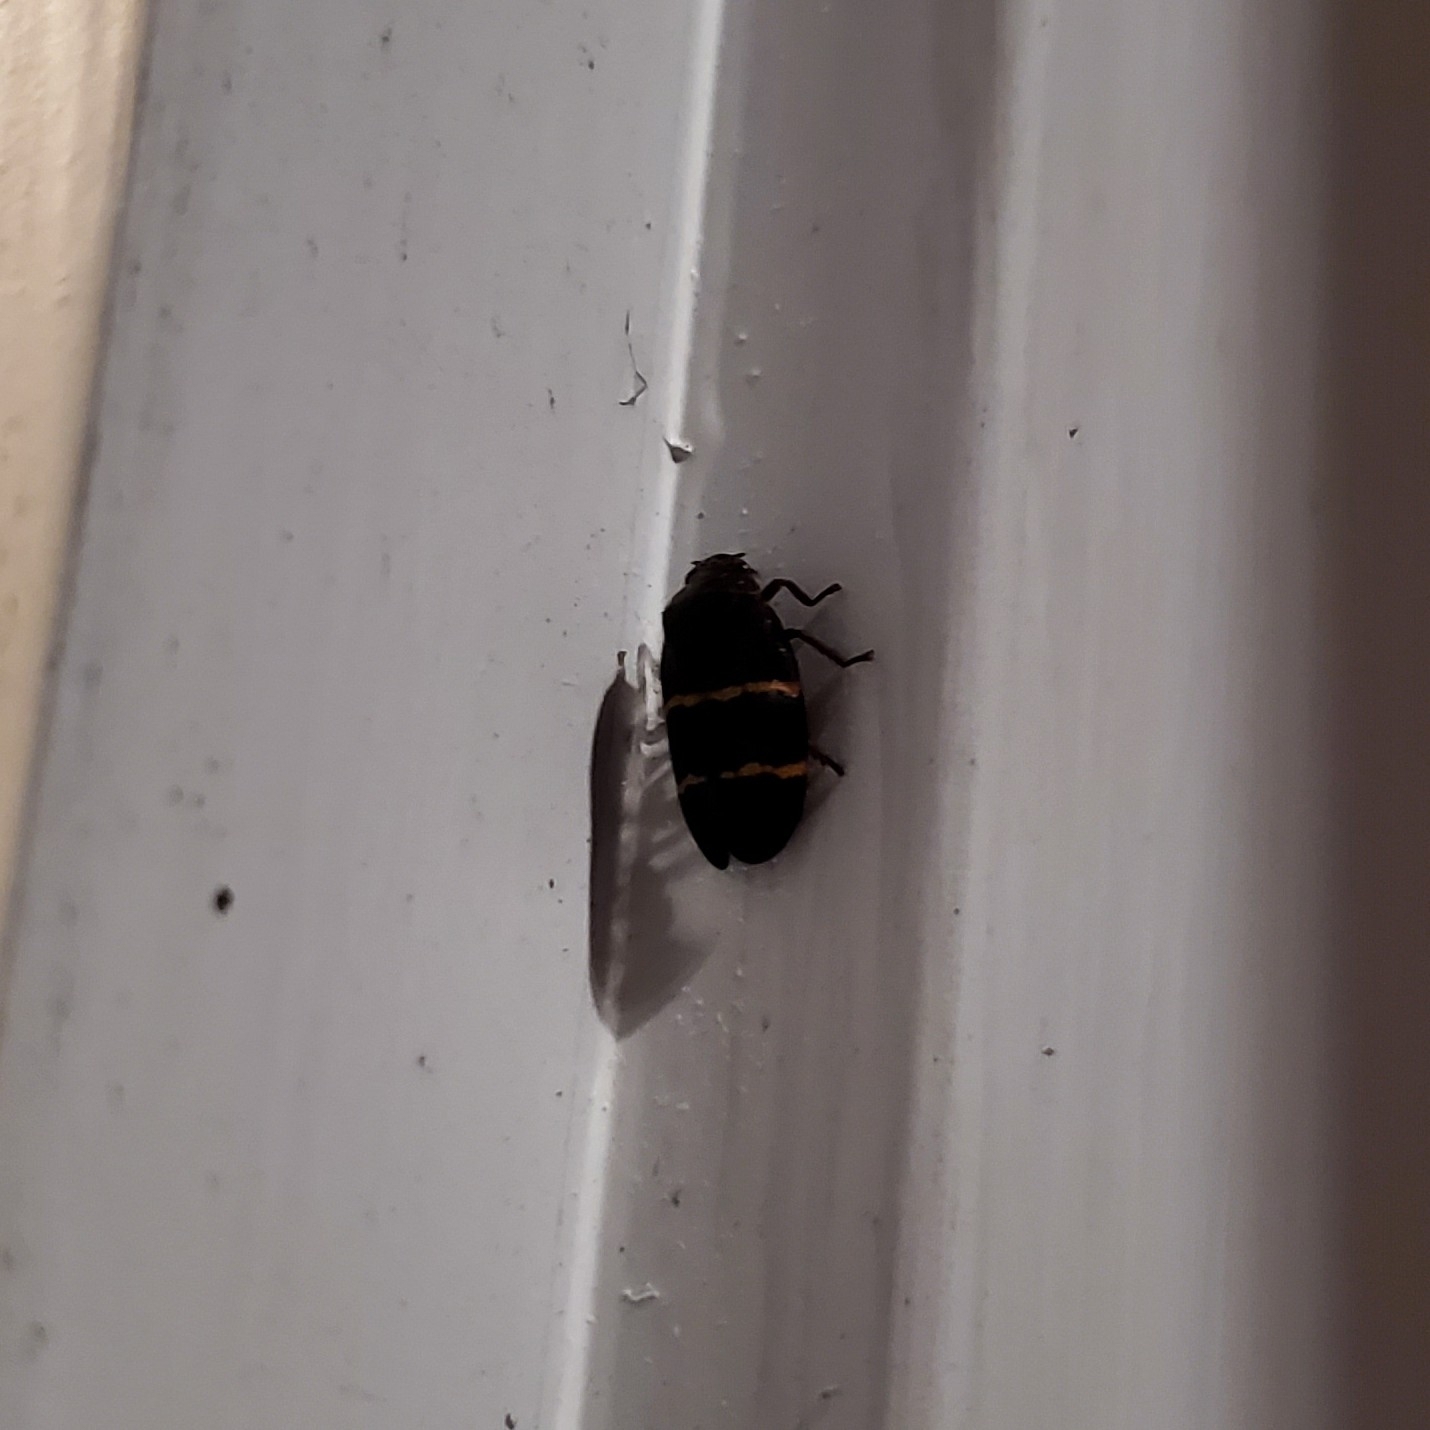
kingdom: Animalia
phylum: Arthropoda
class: Insecta
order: Hemiptera
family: Cercopidae
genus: Prosapia
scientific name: Prosapia bicincta
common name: Twolined spittlebug
